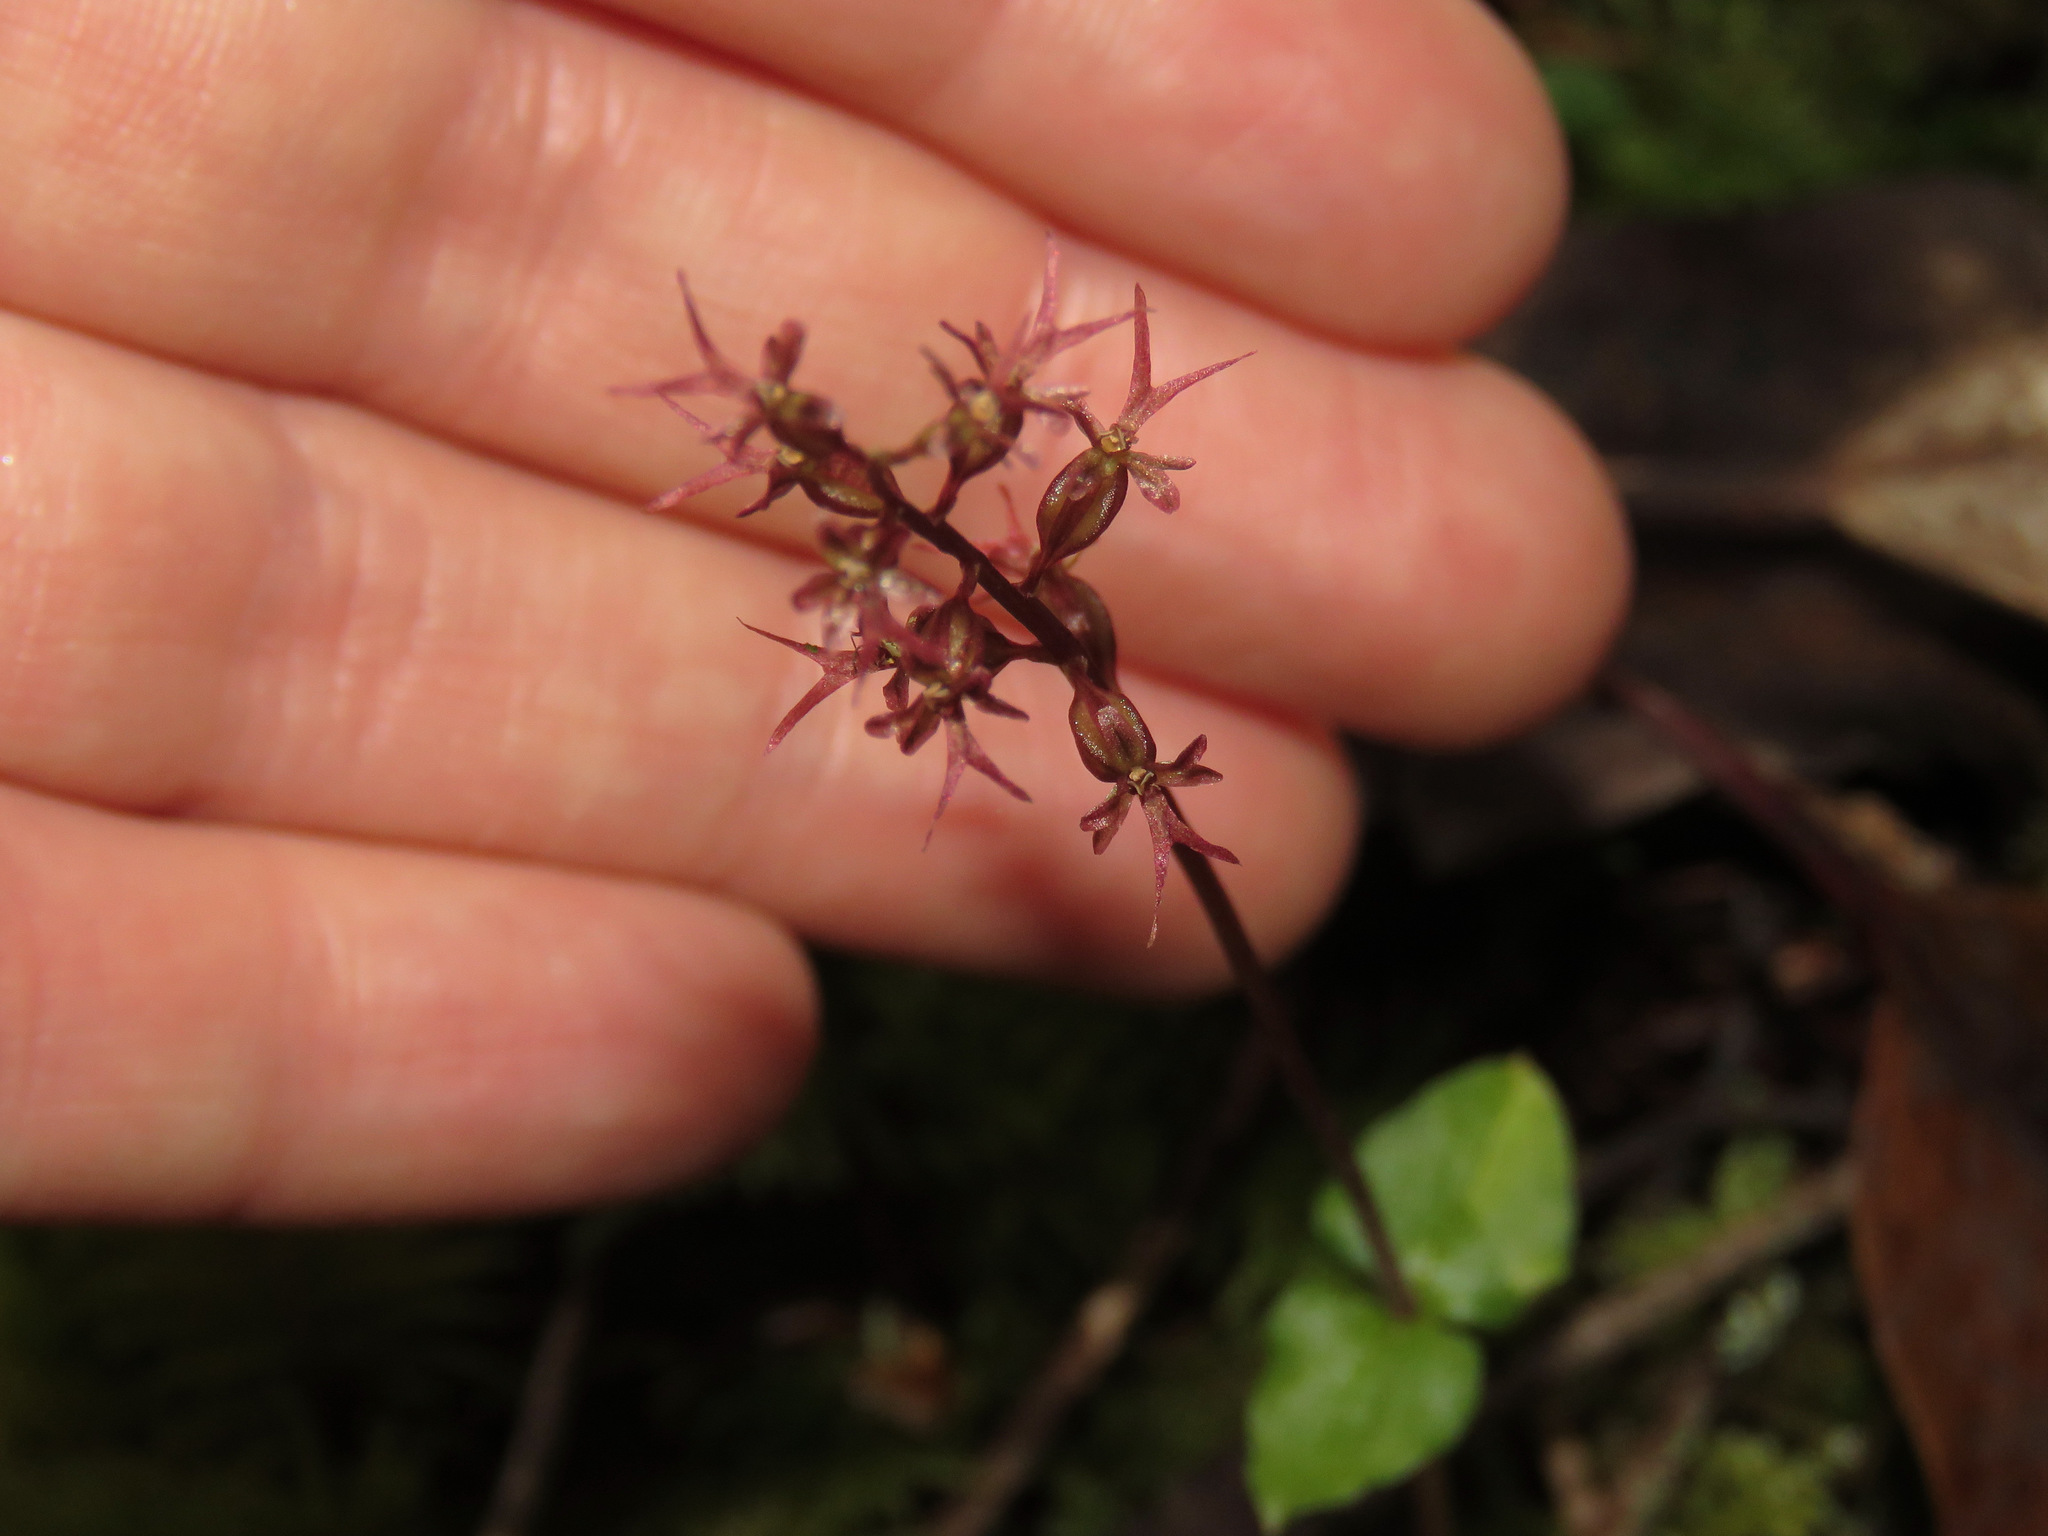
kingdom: Plantae
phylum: Tracheophyta
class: Liliopsida
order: Asparagales
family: Orchidaceae
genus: Neottia
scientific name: Neottia cordata
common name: Lesser twayblade
